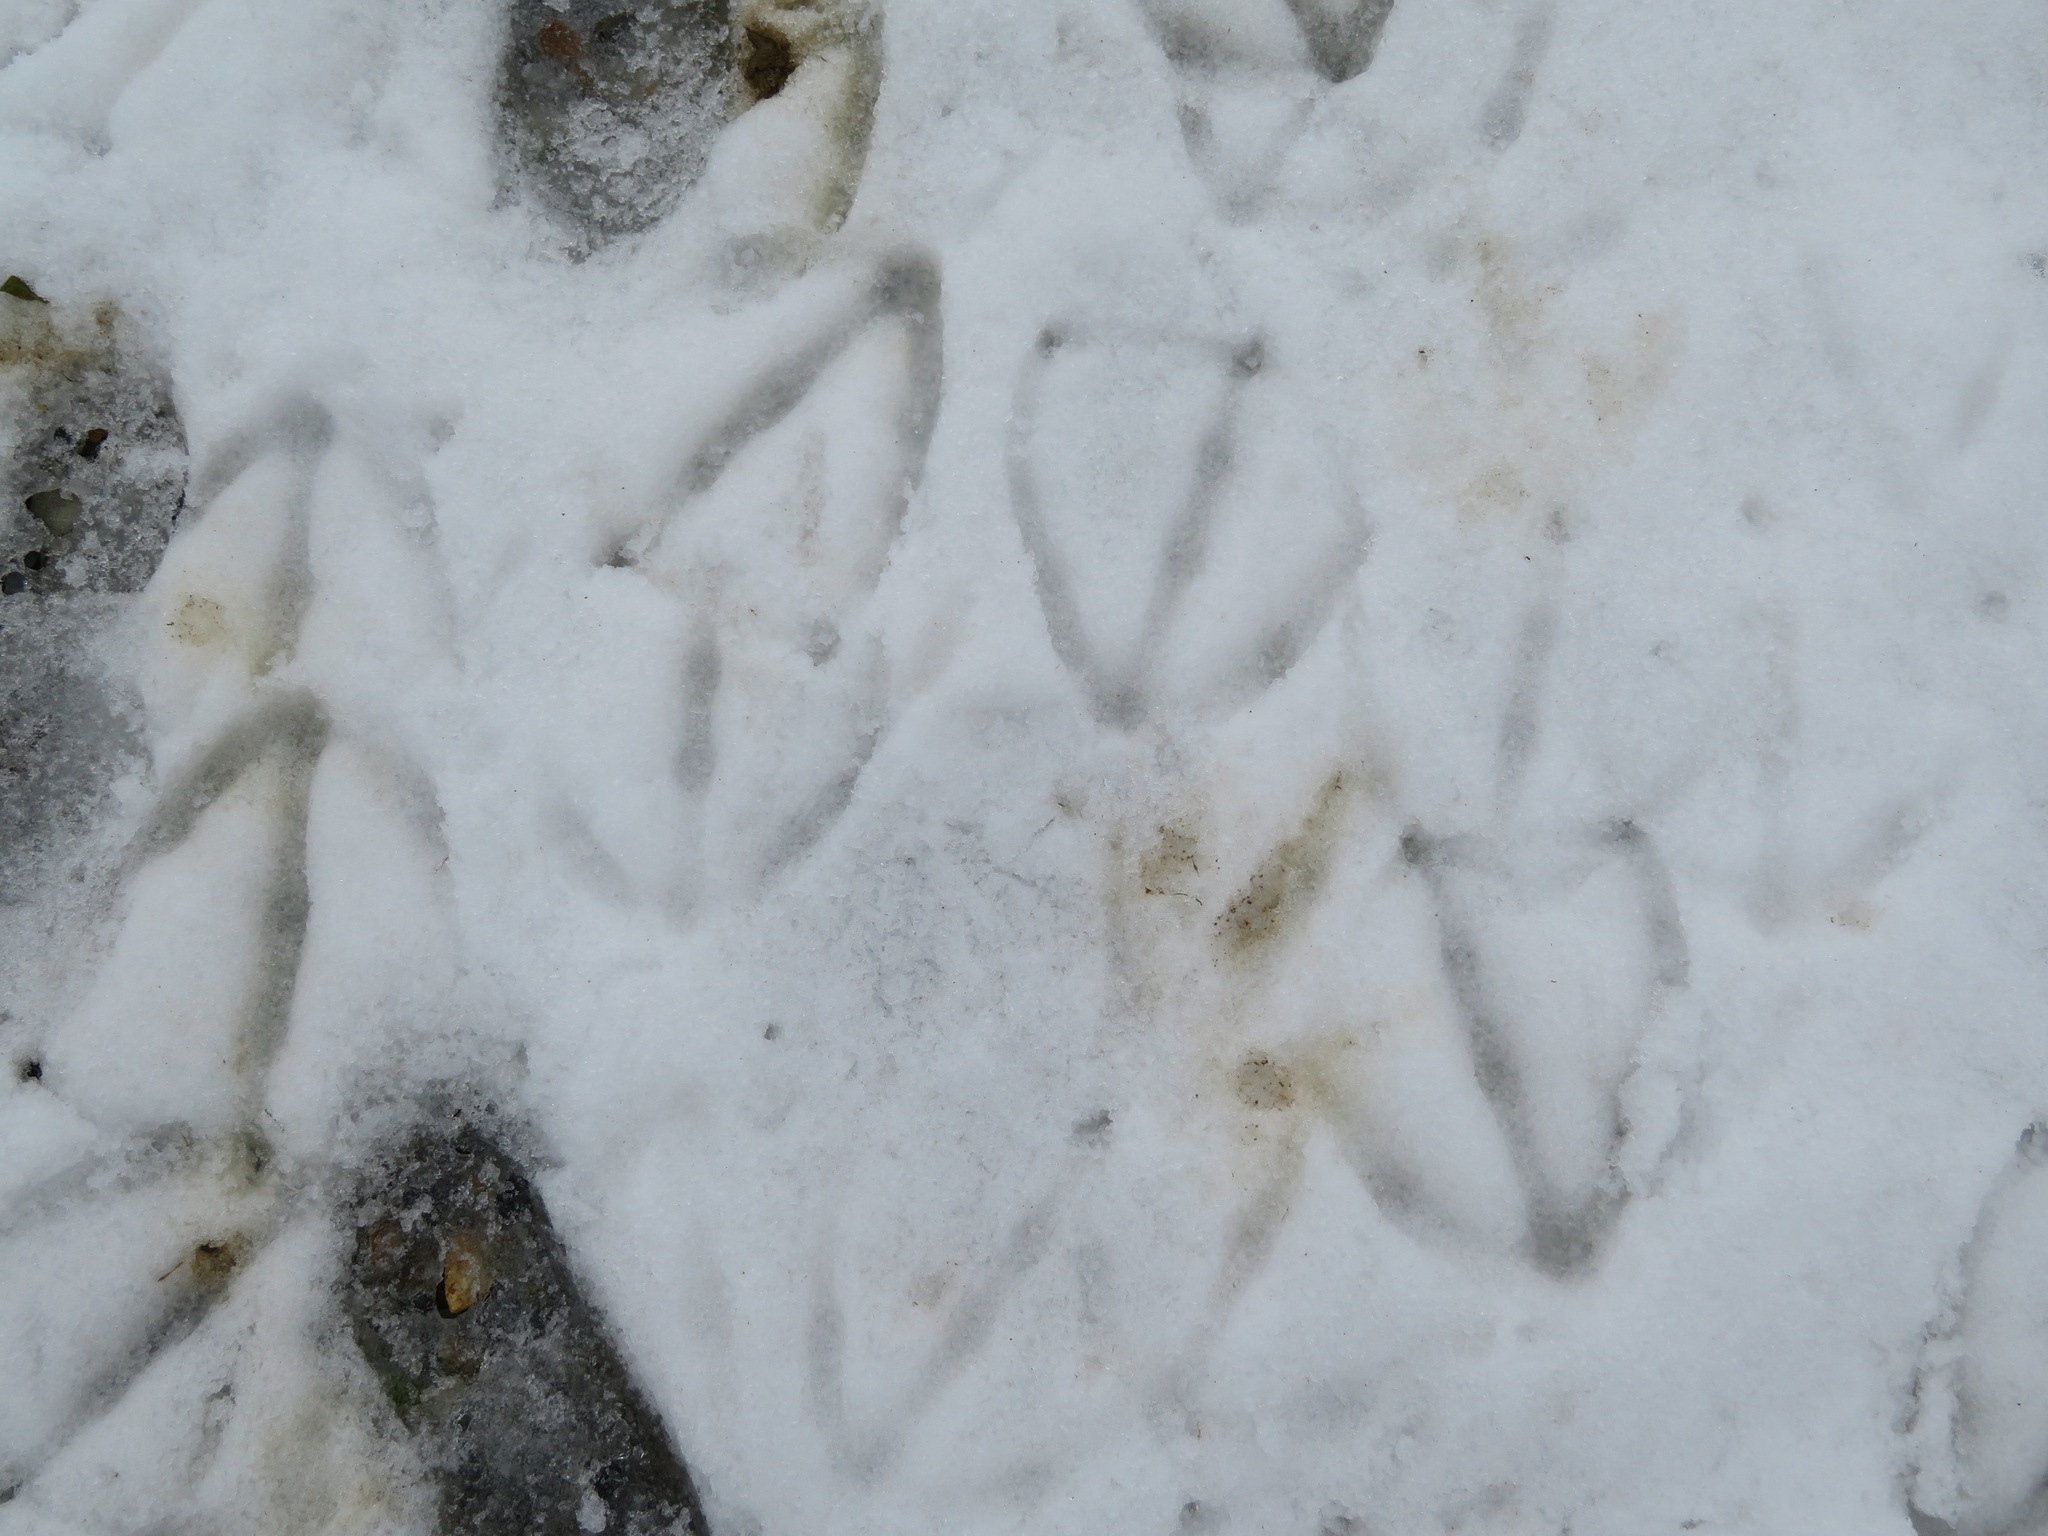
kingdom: Animalia
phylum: Chordata
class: Aves
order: Anseriformes
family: Anatidae
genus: Cygnus
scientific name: Cygnus columbianus
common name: Tundra swan
